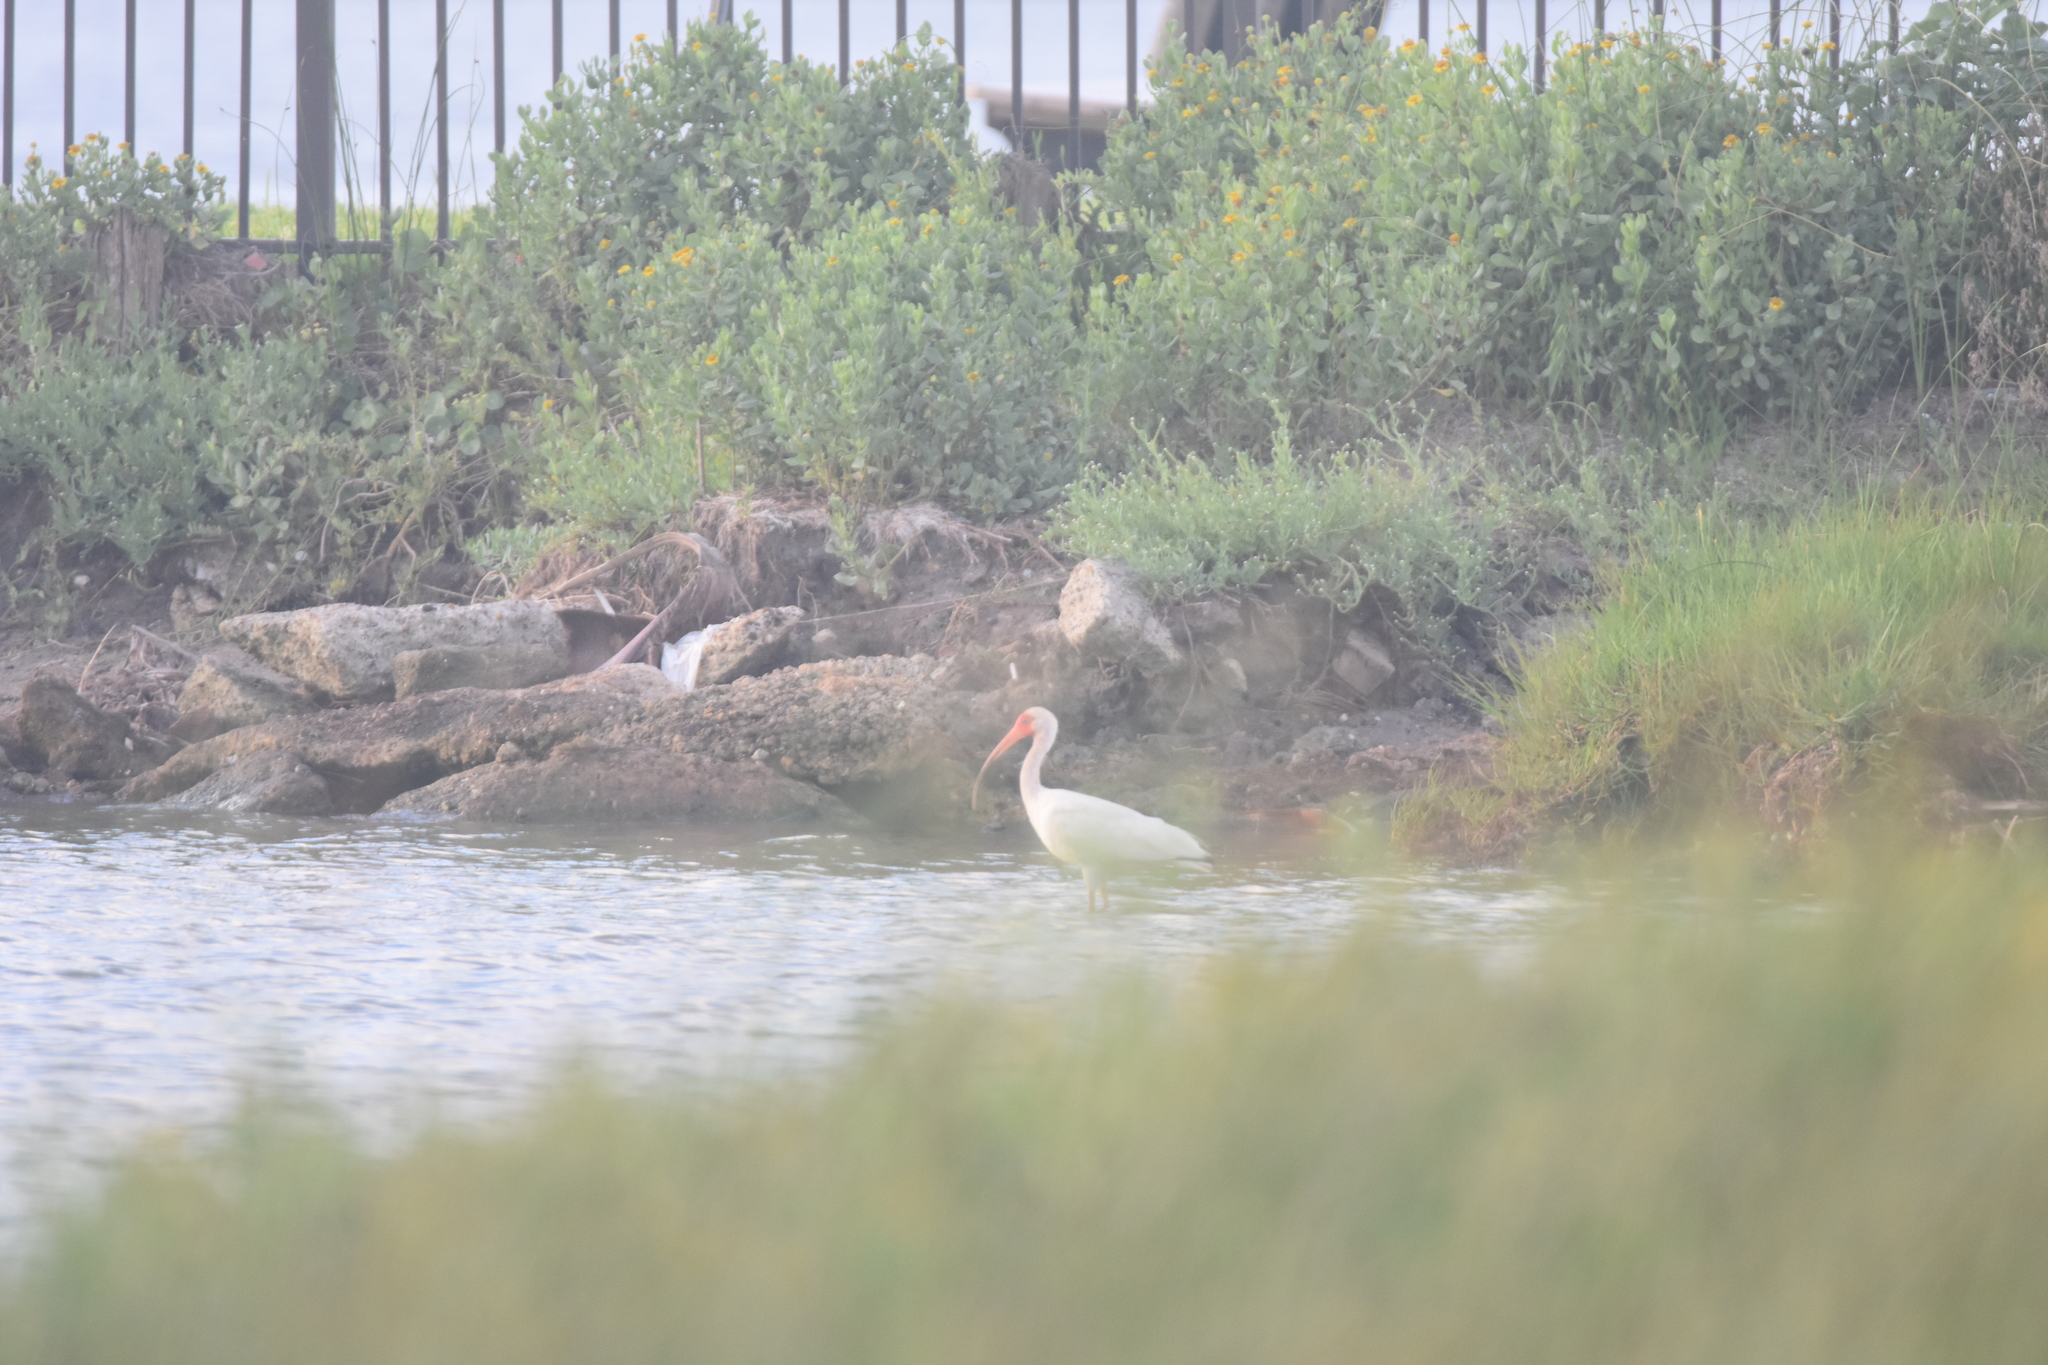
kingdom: Animalia
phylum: Chordata
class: Aves
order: Pelecaniformes
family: Threskiornithidae
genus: Eudocimus
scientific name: Eudocimus albus
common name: White ibis
